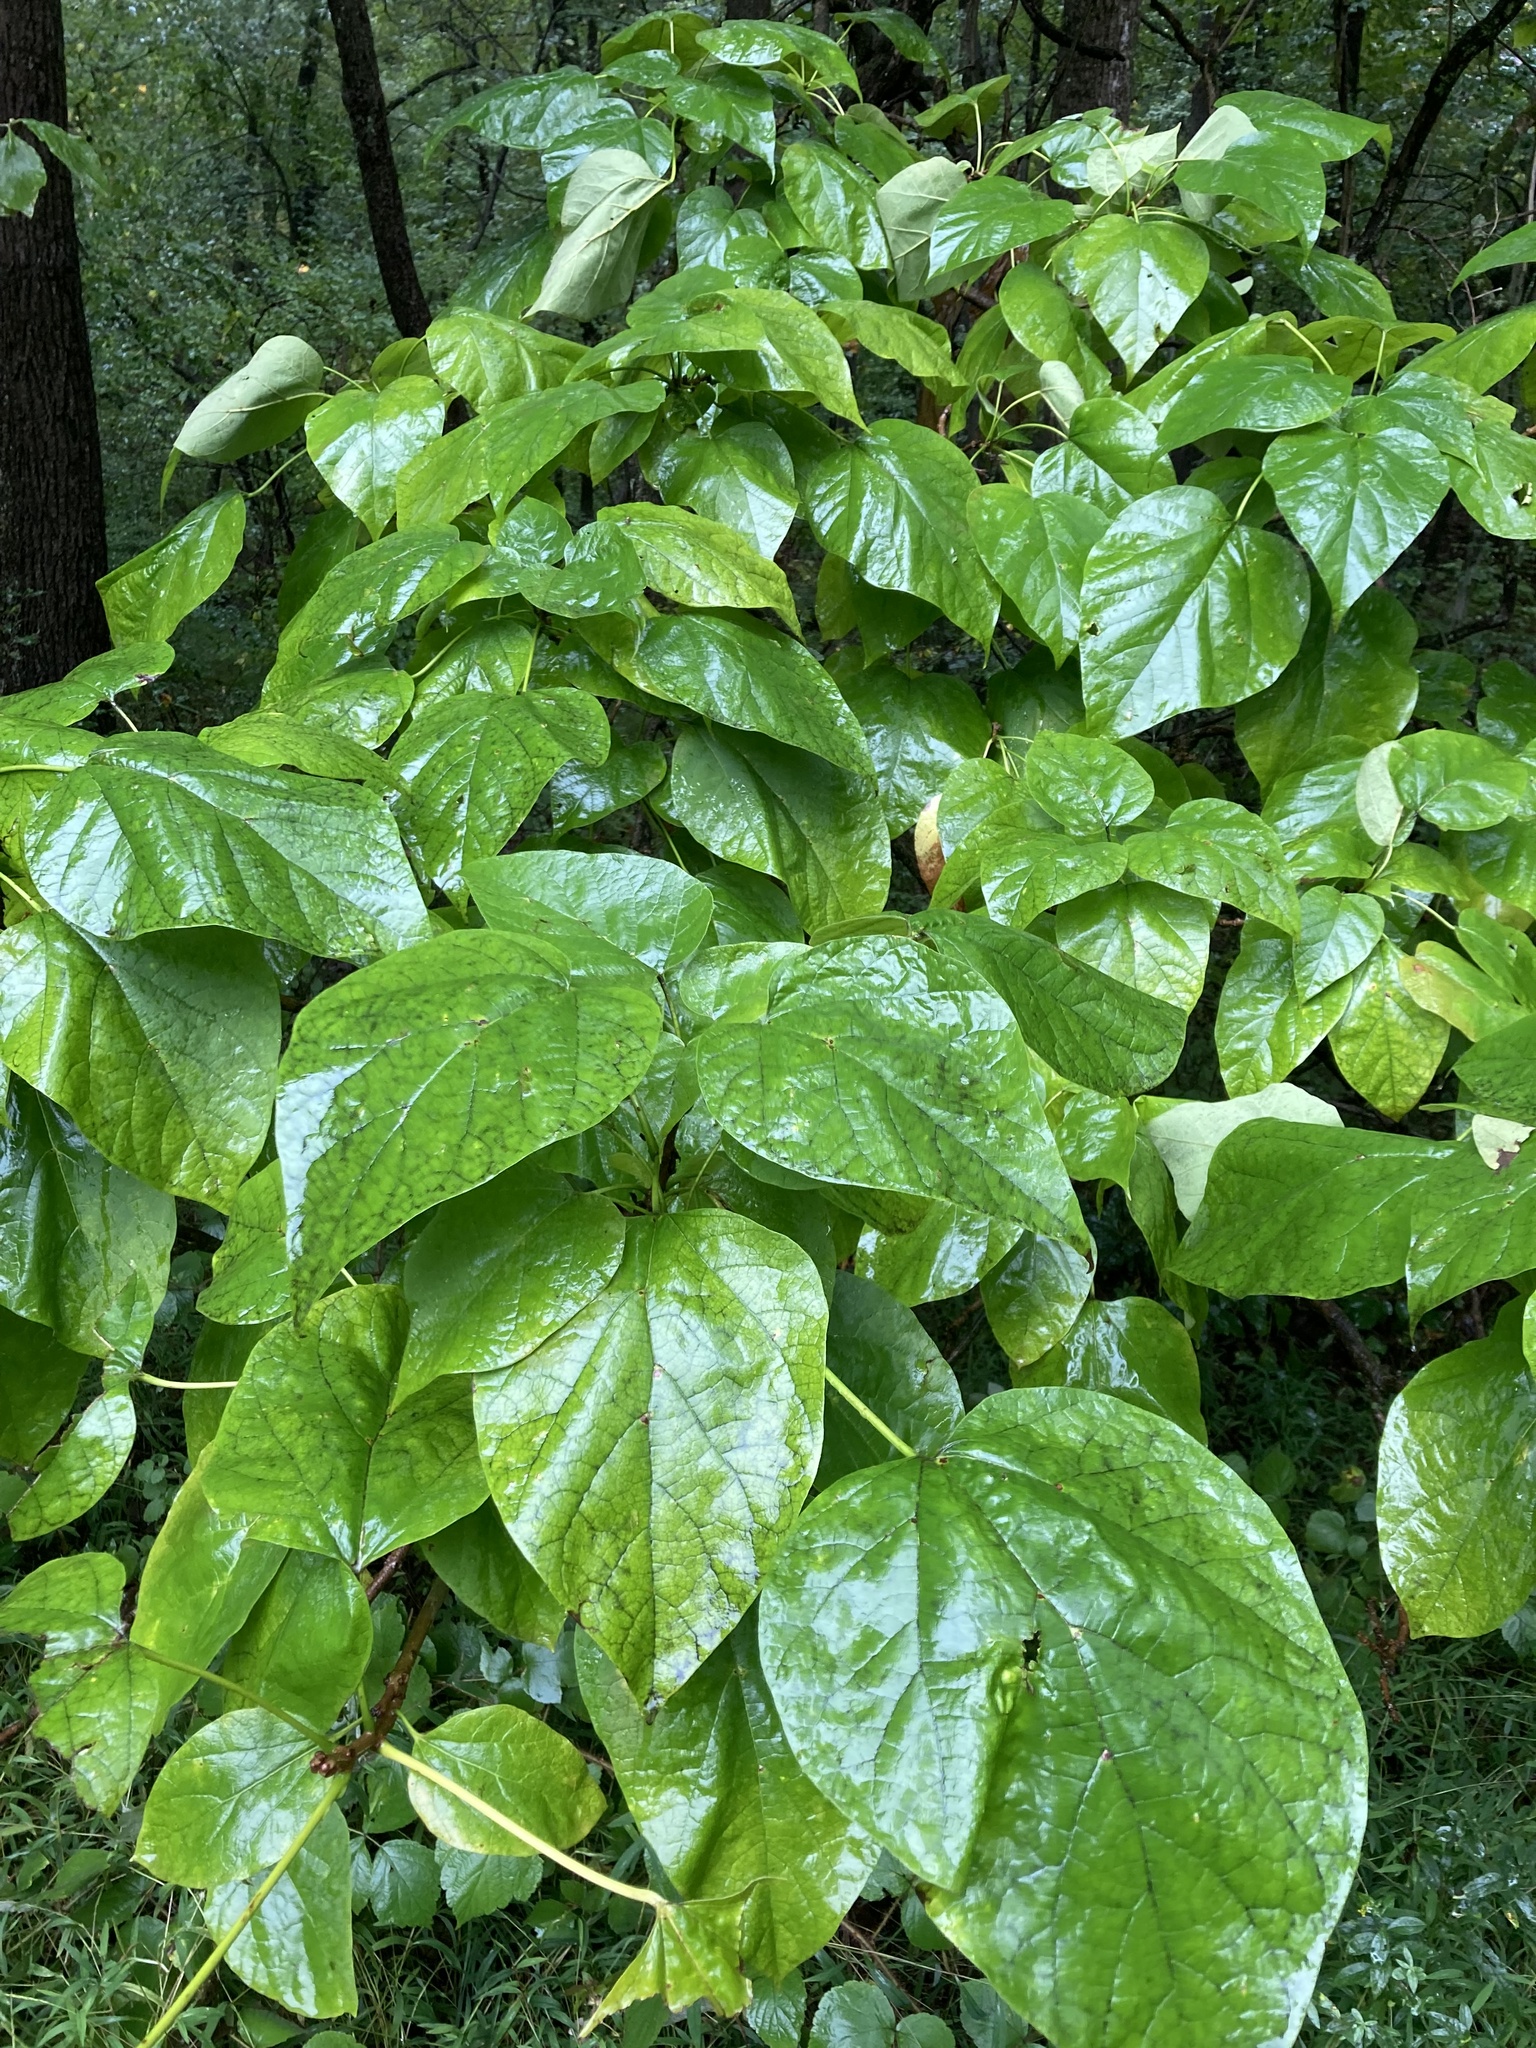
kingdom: Plantae
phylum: Tracheophyta
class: Magnoliopsida
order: Lamiales
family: Bignoniaceae
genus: Catalpa
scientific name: Catalpa speciosa
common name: Northern catalpa
